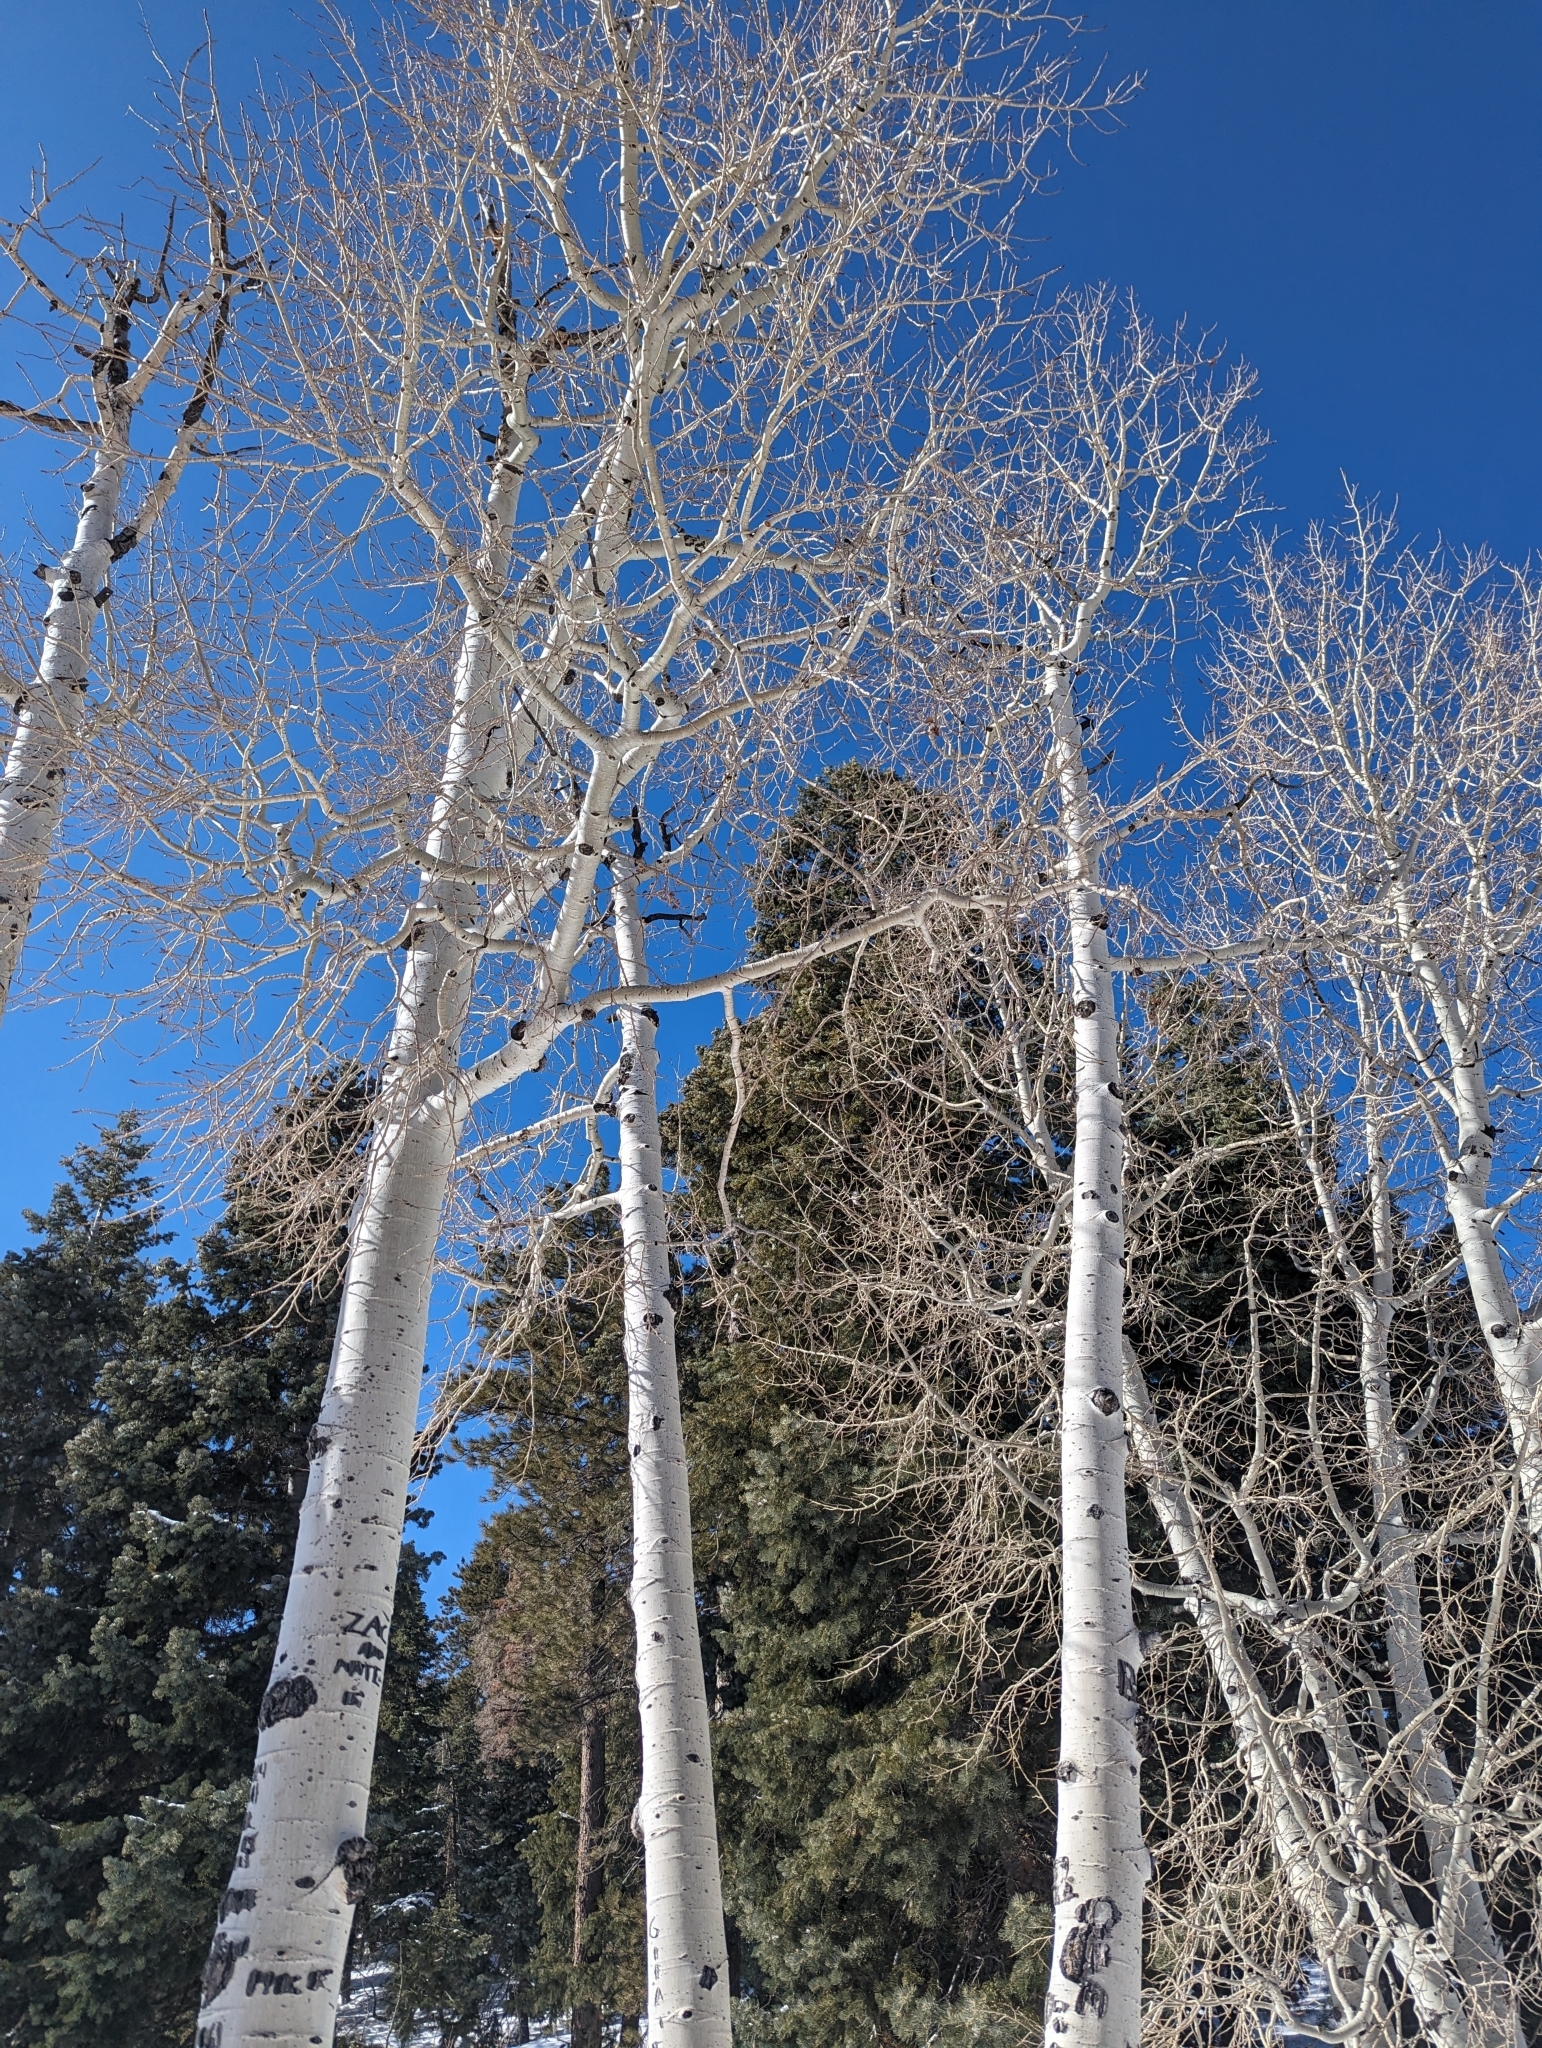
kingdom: Plantae
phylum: Tracheophyta
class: Magnoliopsida
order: Malpighiales
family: Salicaceae
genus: Populus
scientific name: Populus tremuloides
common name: Quaking aspen
